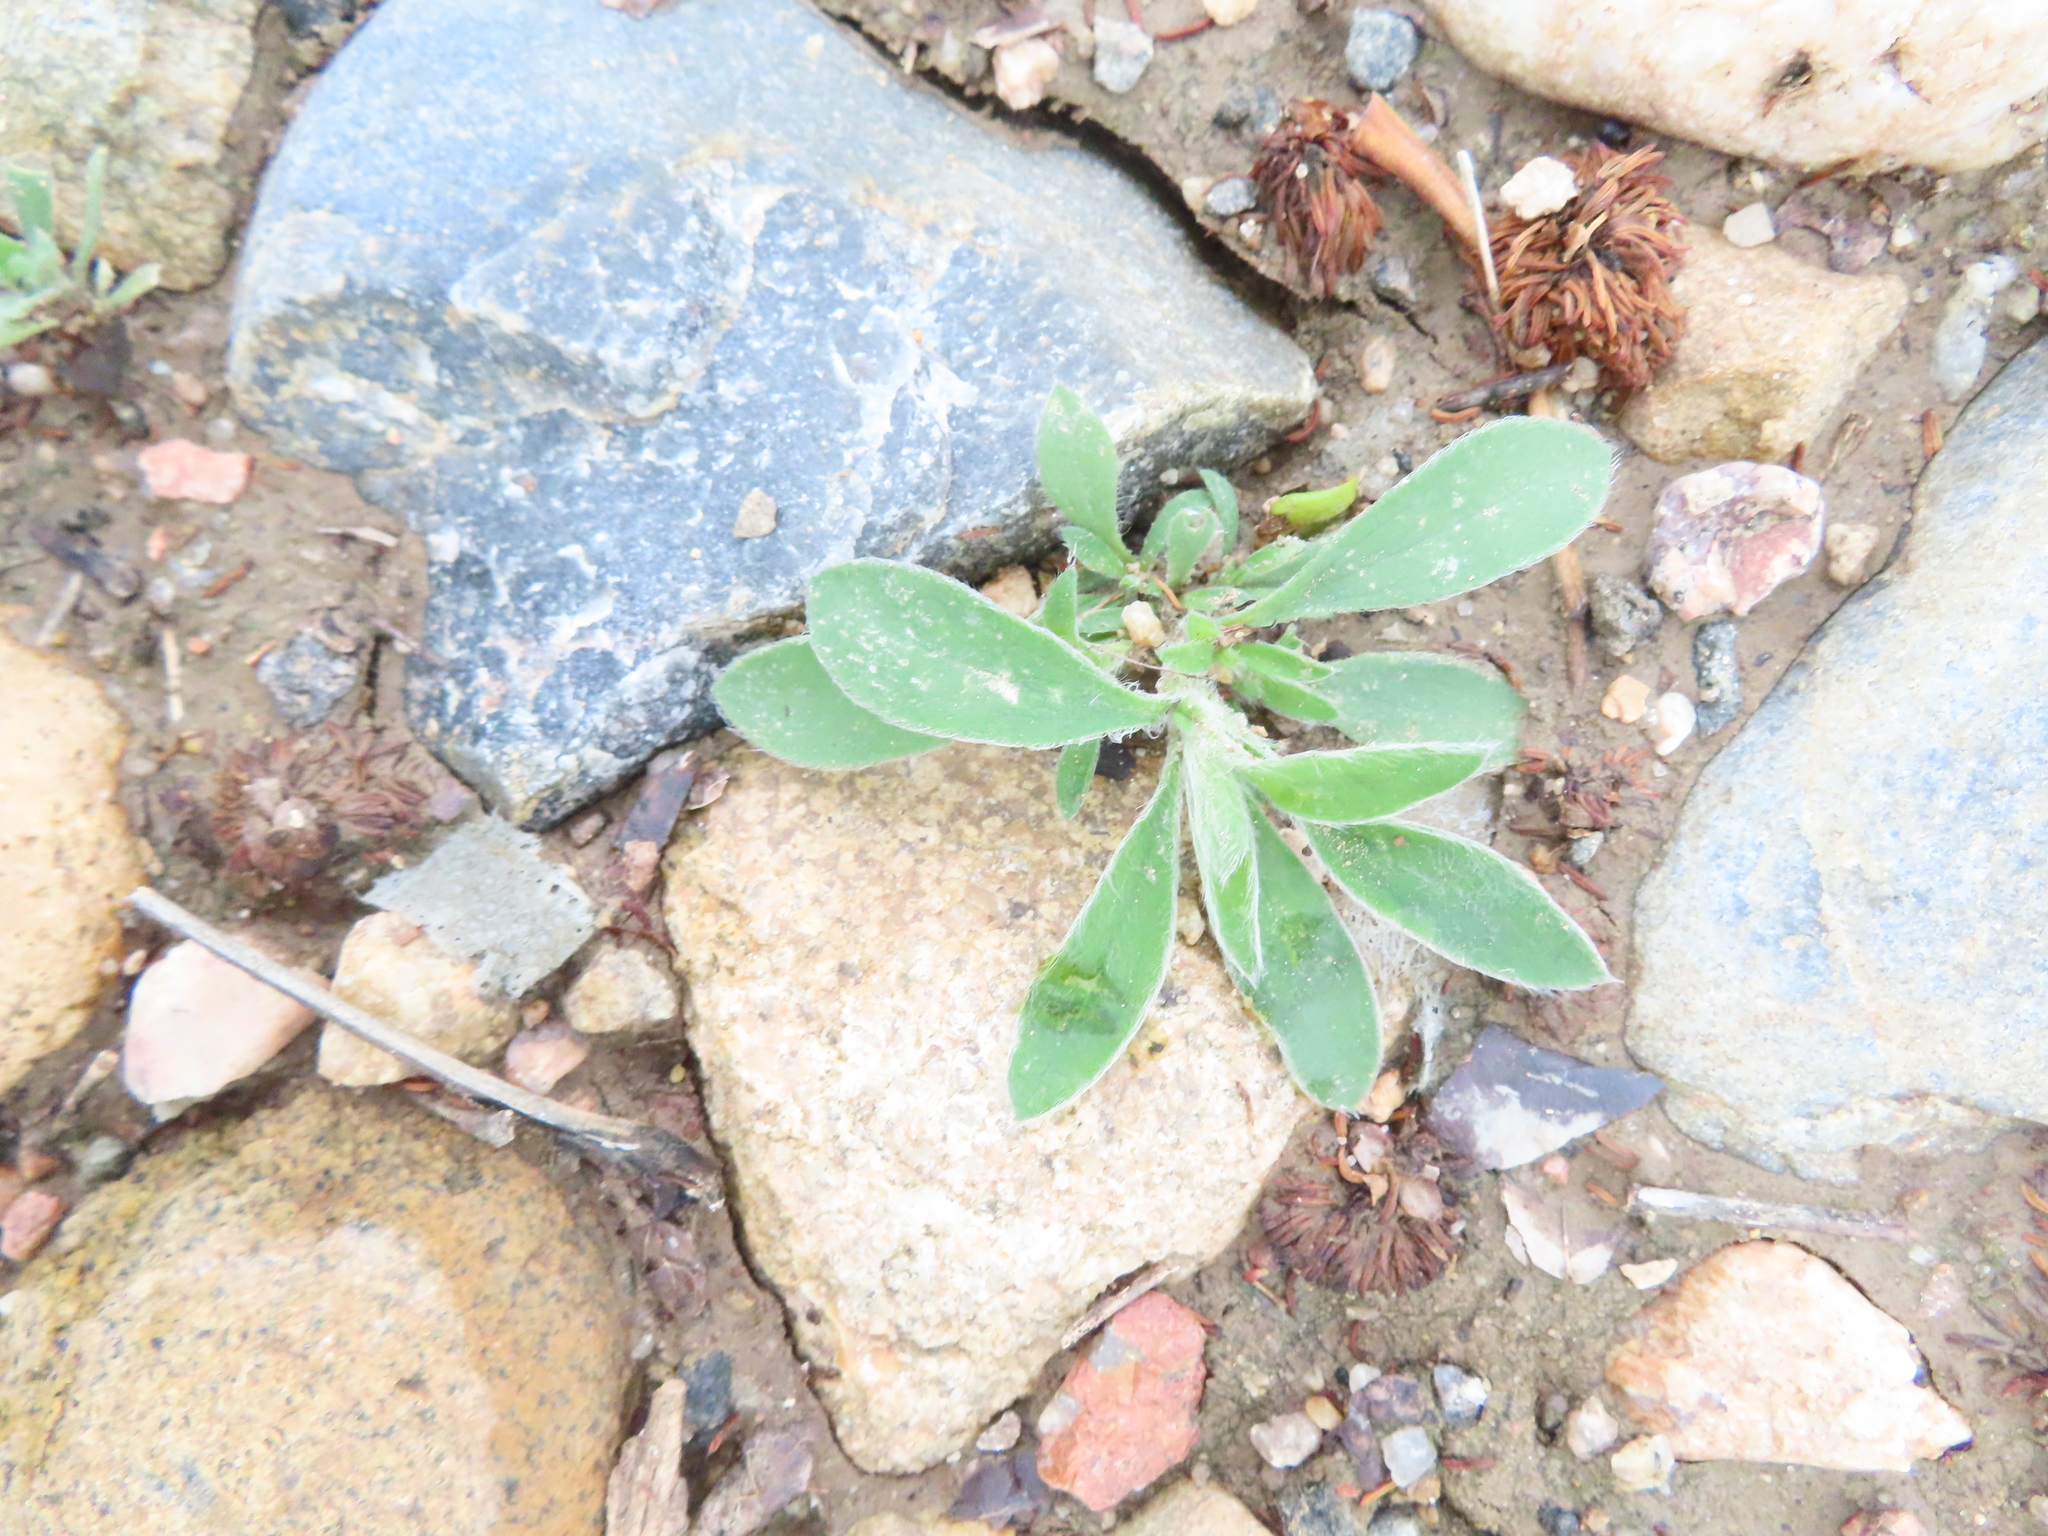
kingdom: Plantae
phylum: Tracheophyta
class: Magnoliopsida
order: Caryophyllales
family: Amaranthaceae
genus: Bassia
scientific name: Bassia scoparia
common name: Belvedere
